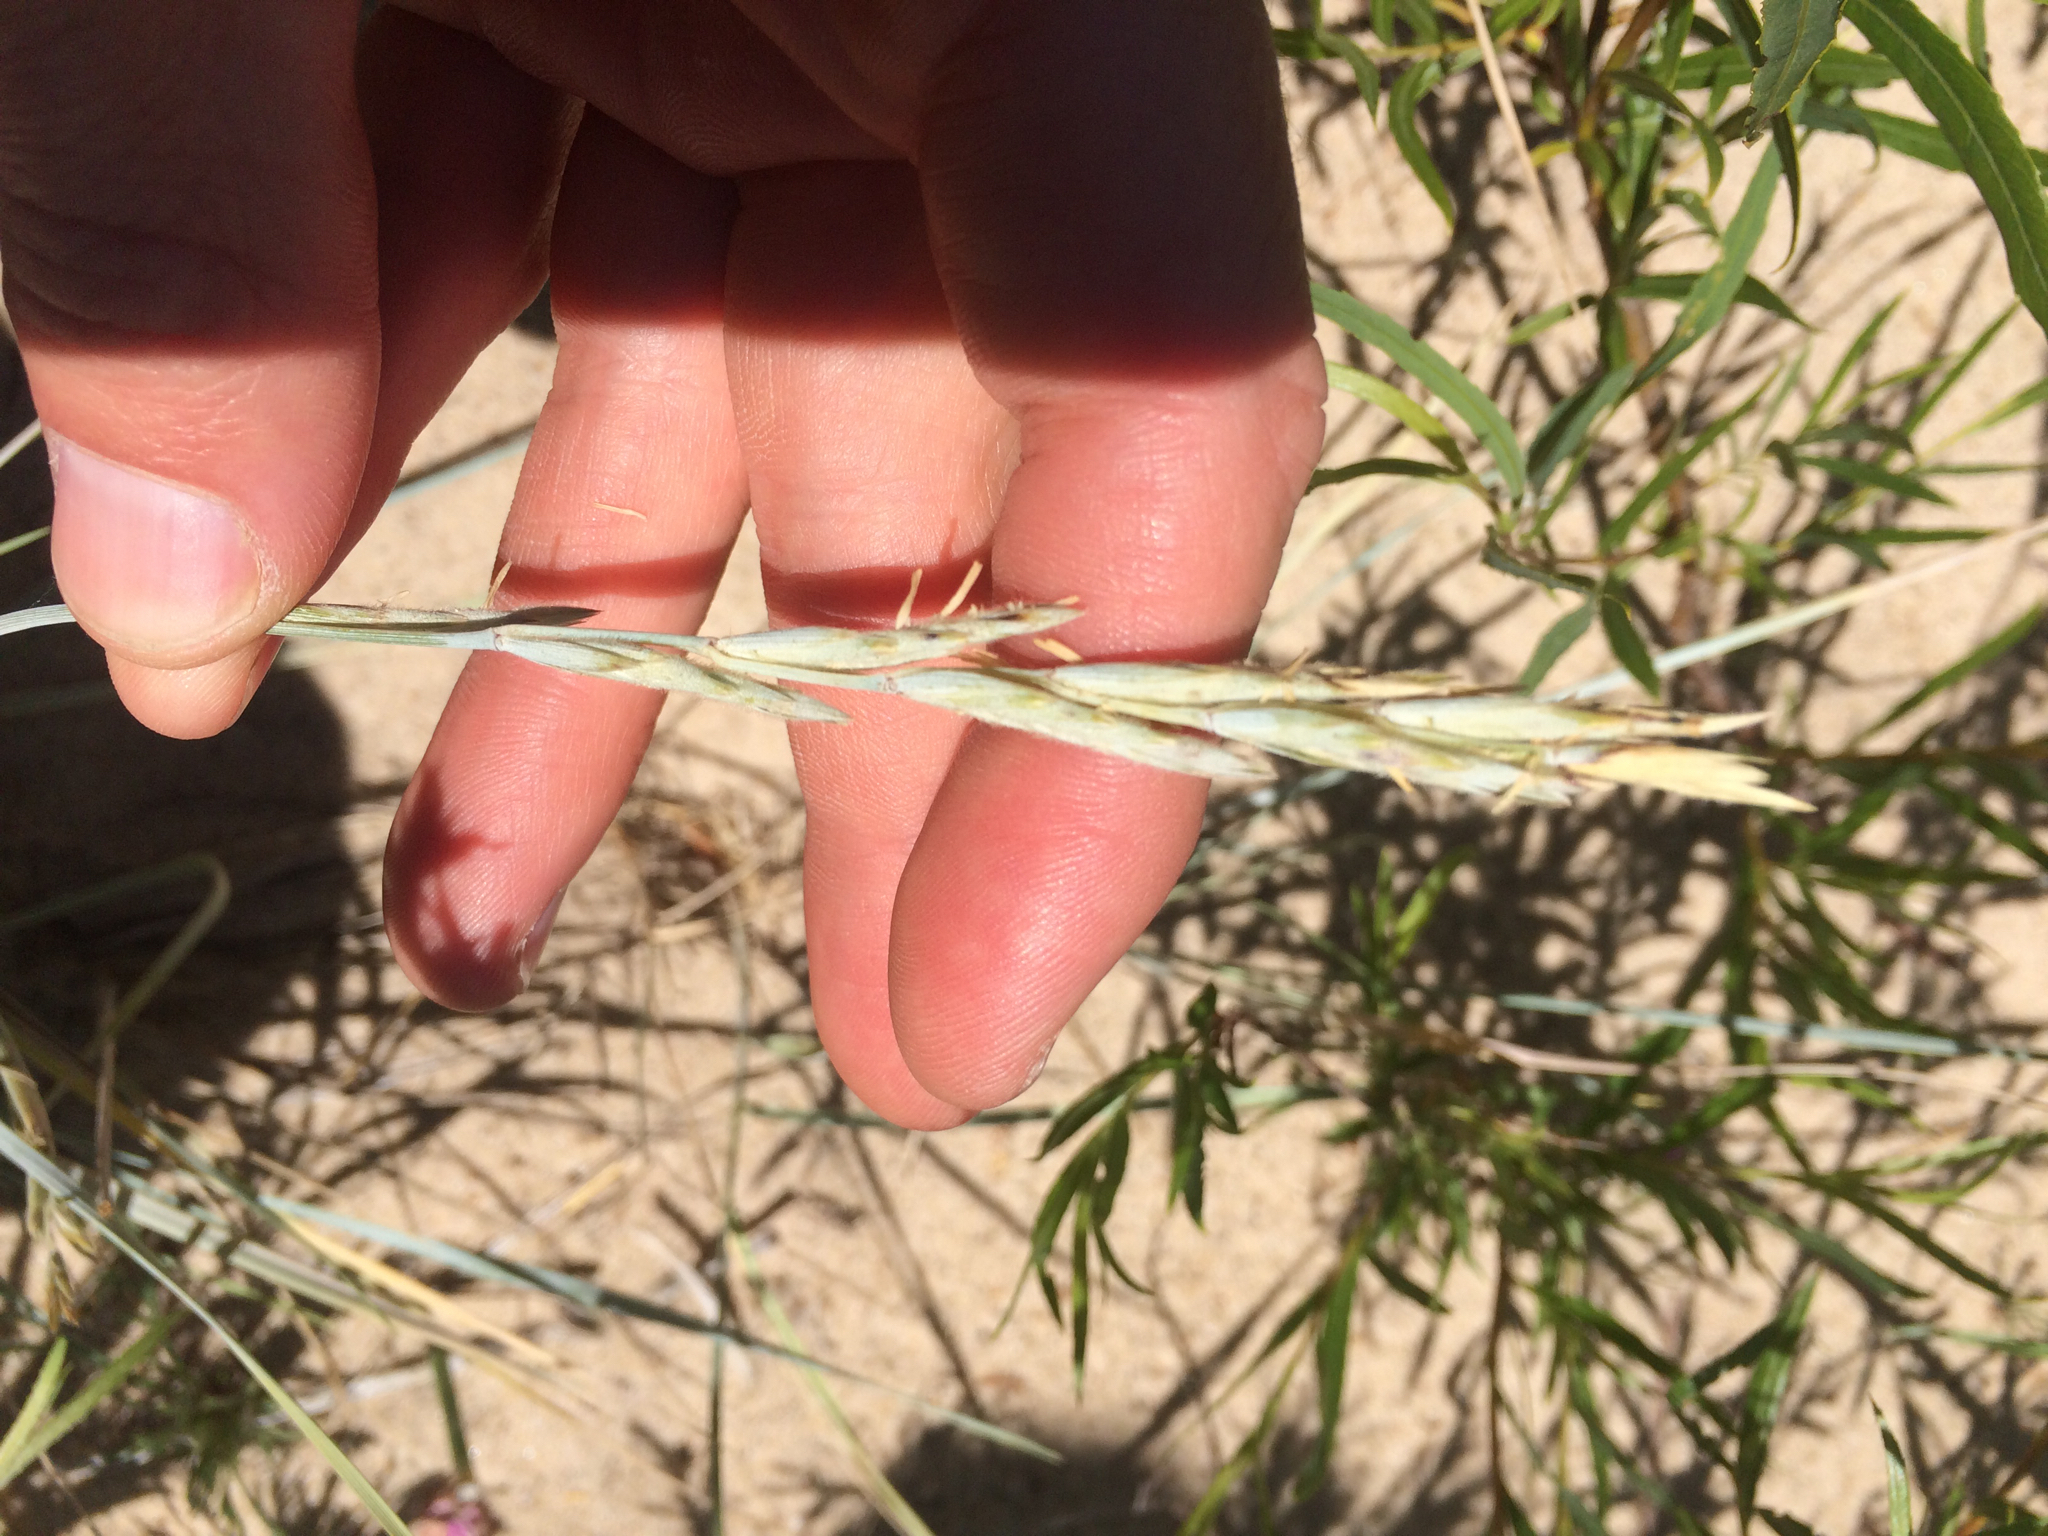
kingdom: Plantae
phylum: Tracheophyta
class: Liliopsida
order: Poales
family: Poaceae
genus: Elymus
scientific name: Elymus lanceolatus
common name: Thick-spike wheatgrass
